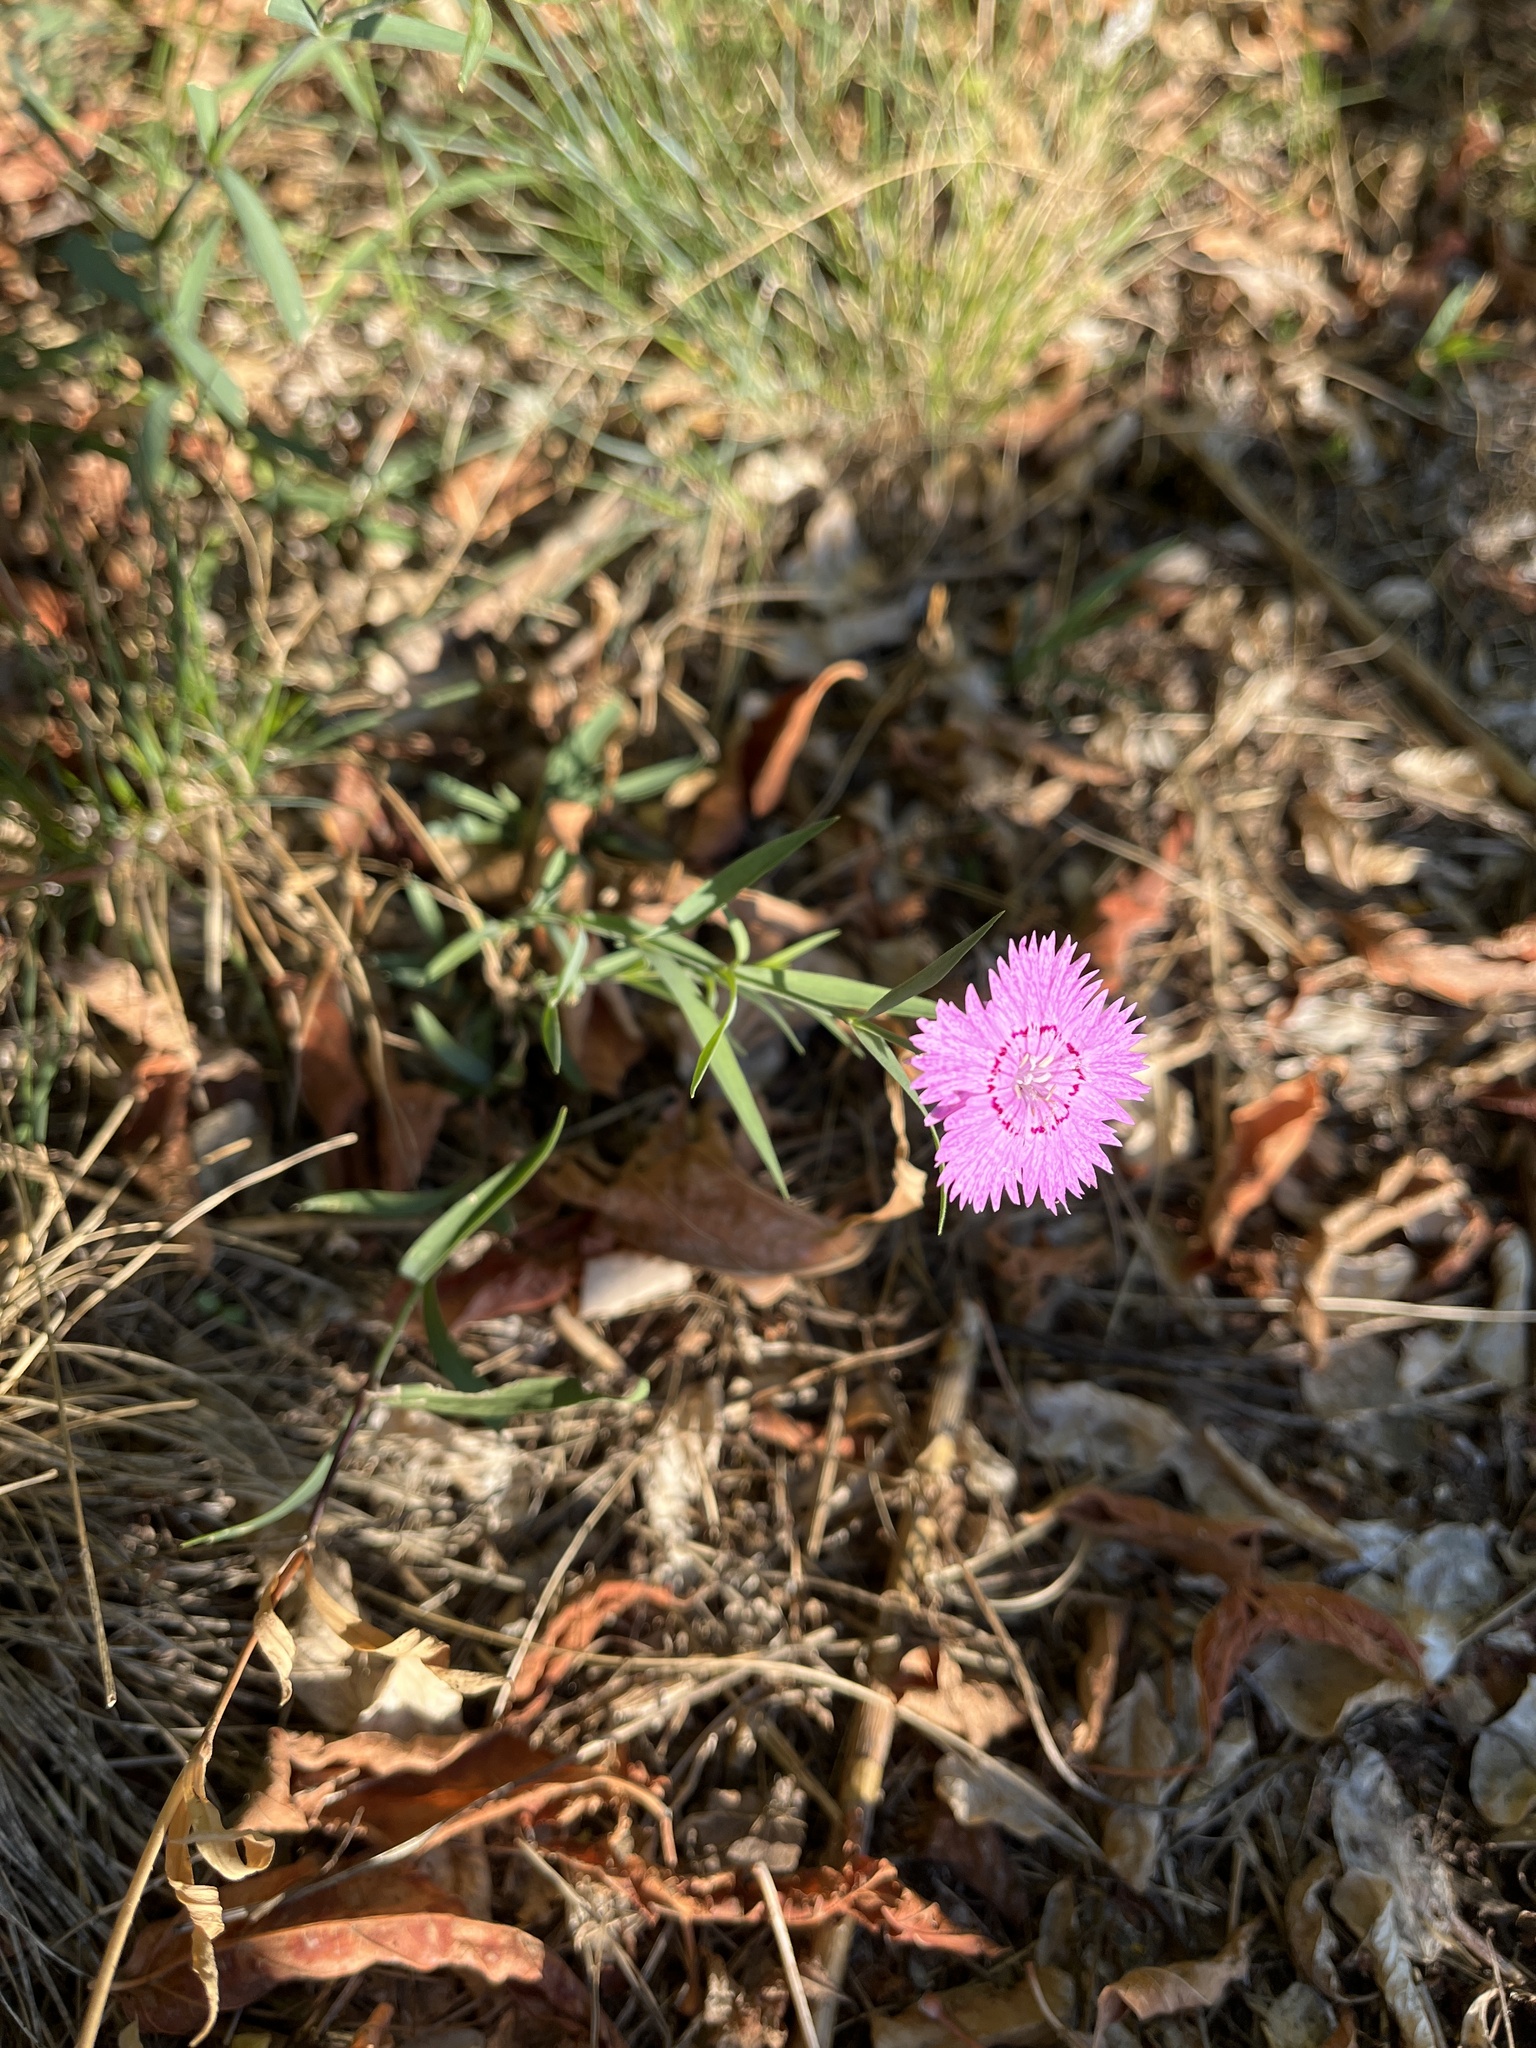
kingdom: Plantae
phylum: Tracheophyta
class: Magnoliopsida
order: Caryophyllales
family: Caryophyllaceae
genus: Dianthus
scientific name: Dianthus chinensis
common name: Rainbow pink
